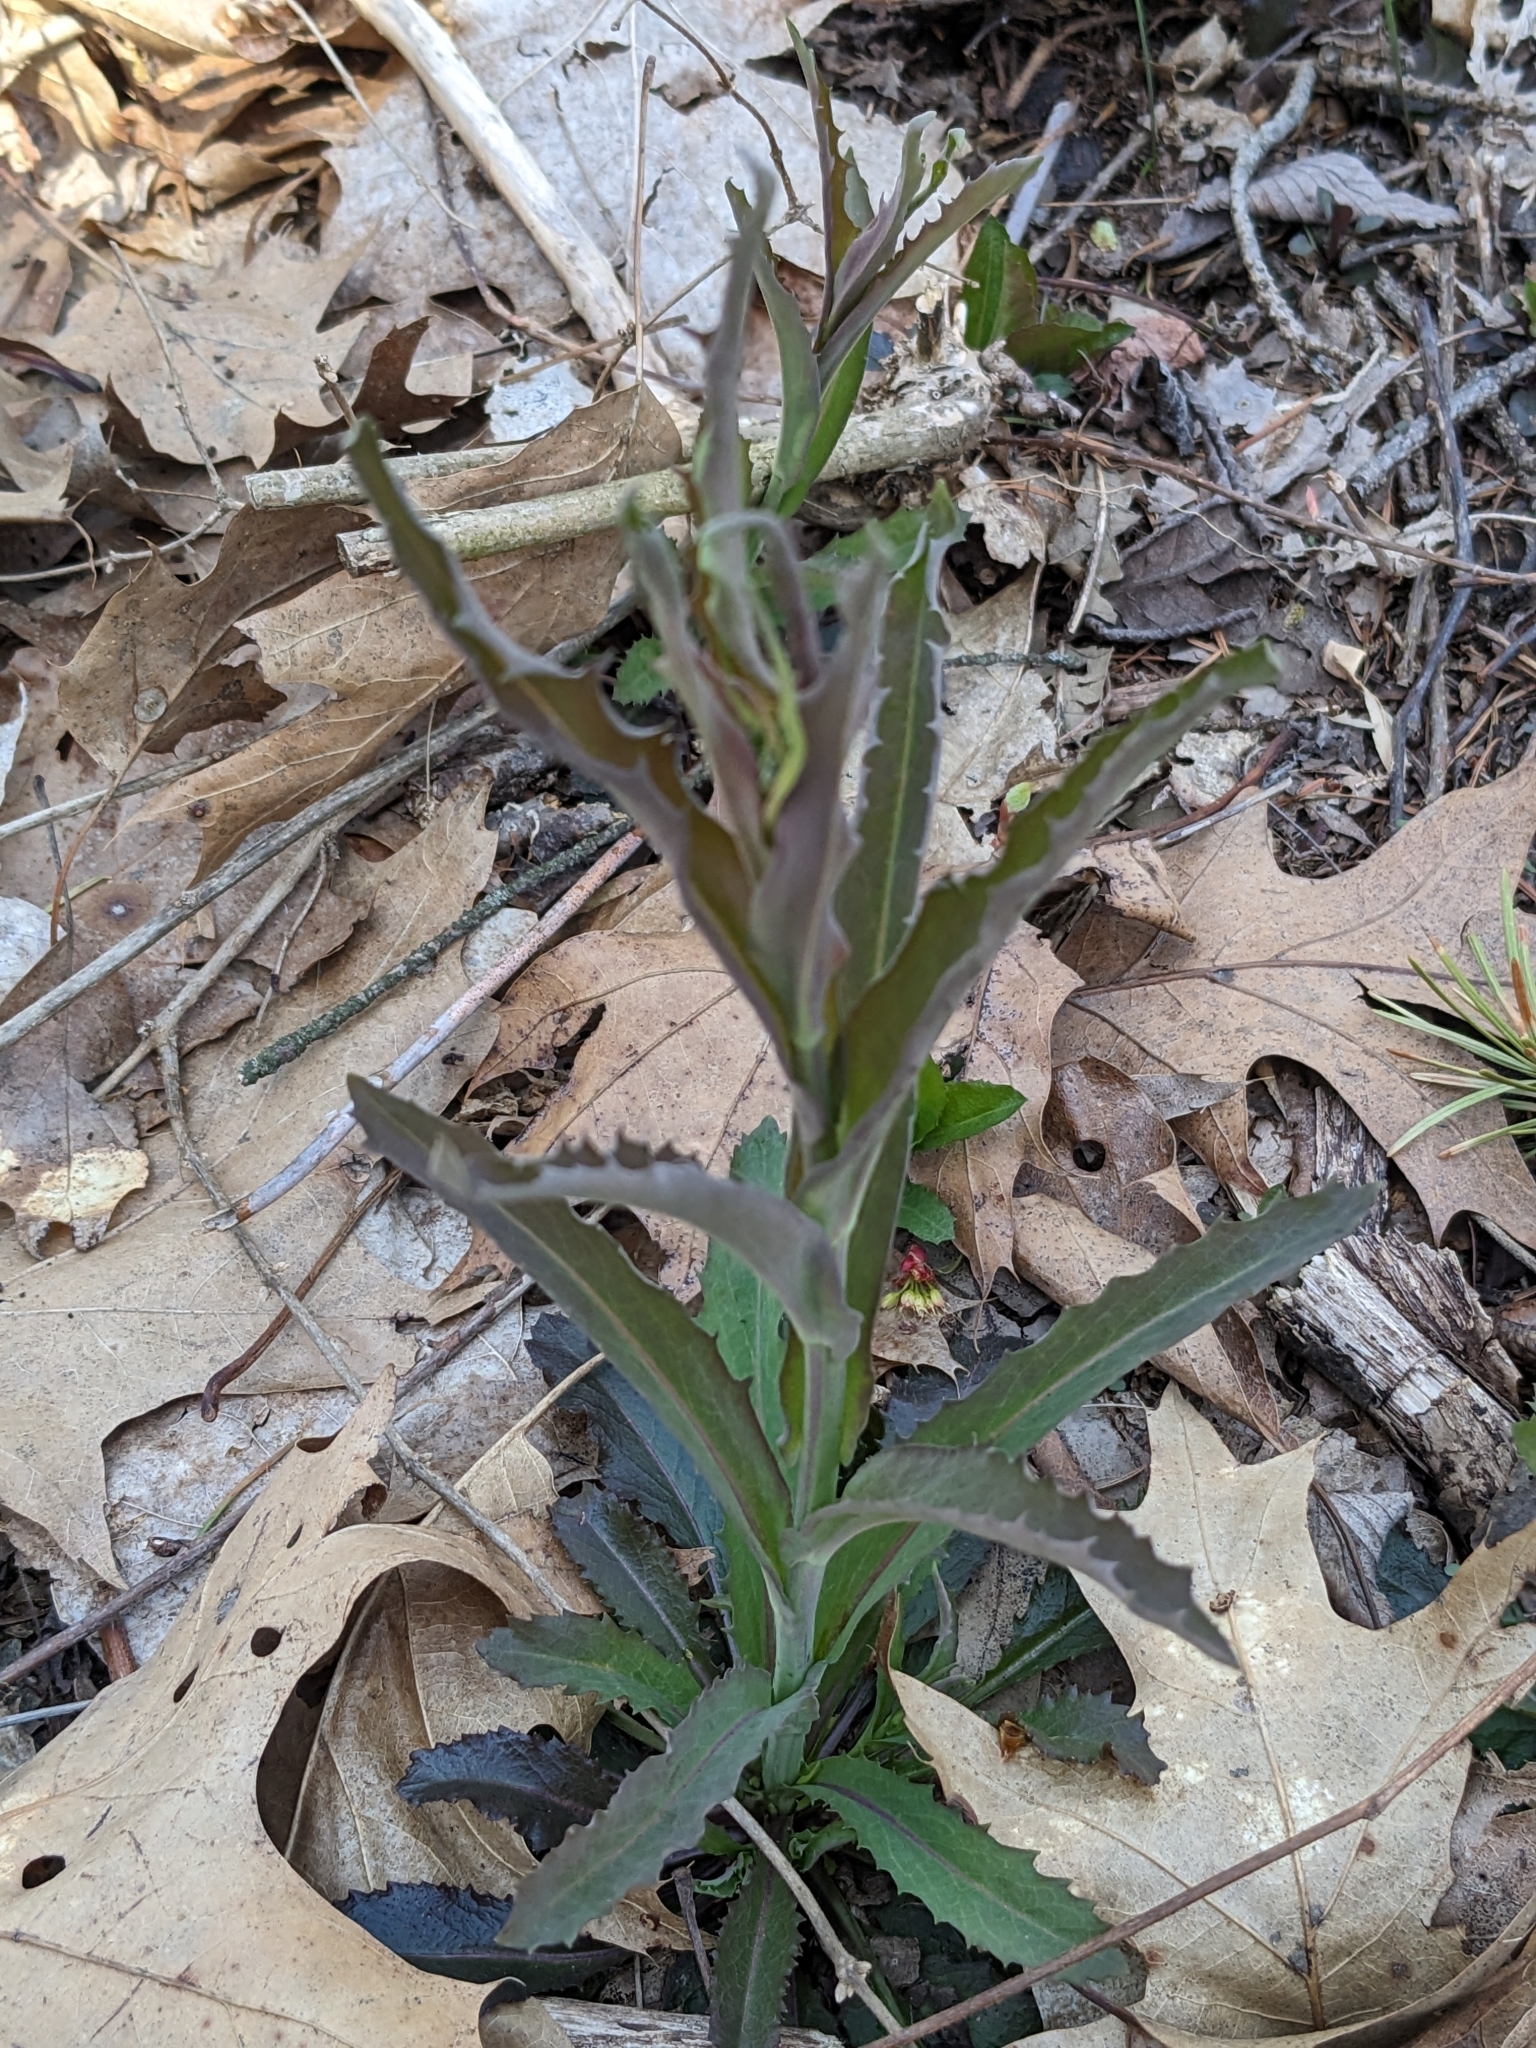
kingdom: Plantae
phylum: Tracheophyta
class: Magnoliopsida
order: Brassicales
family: Brassicaceae
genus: Borodinia
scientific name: Borodinia laevigata
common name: Smooth rockcress
